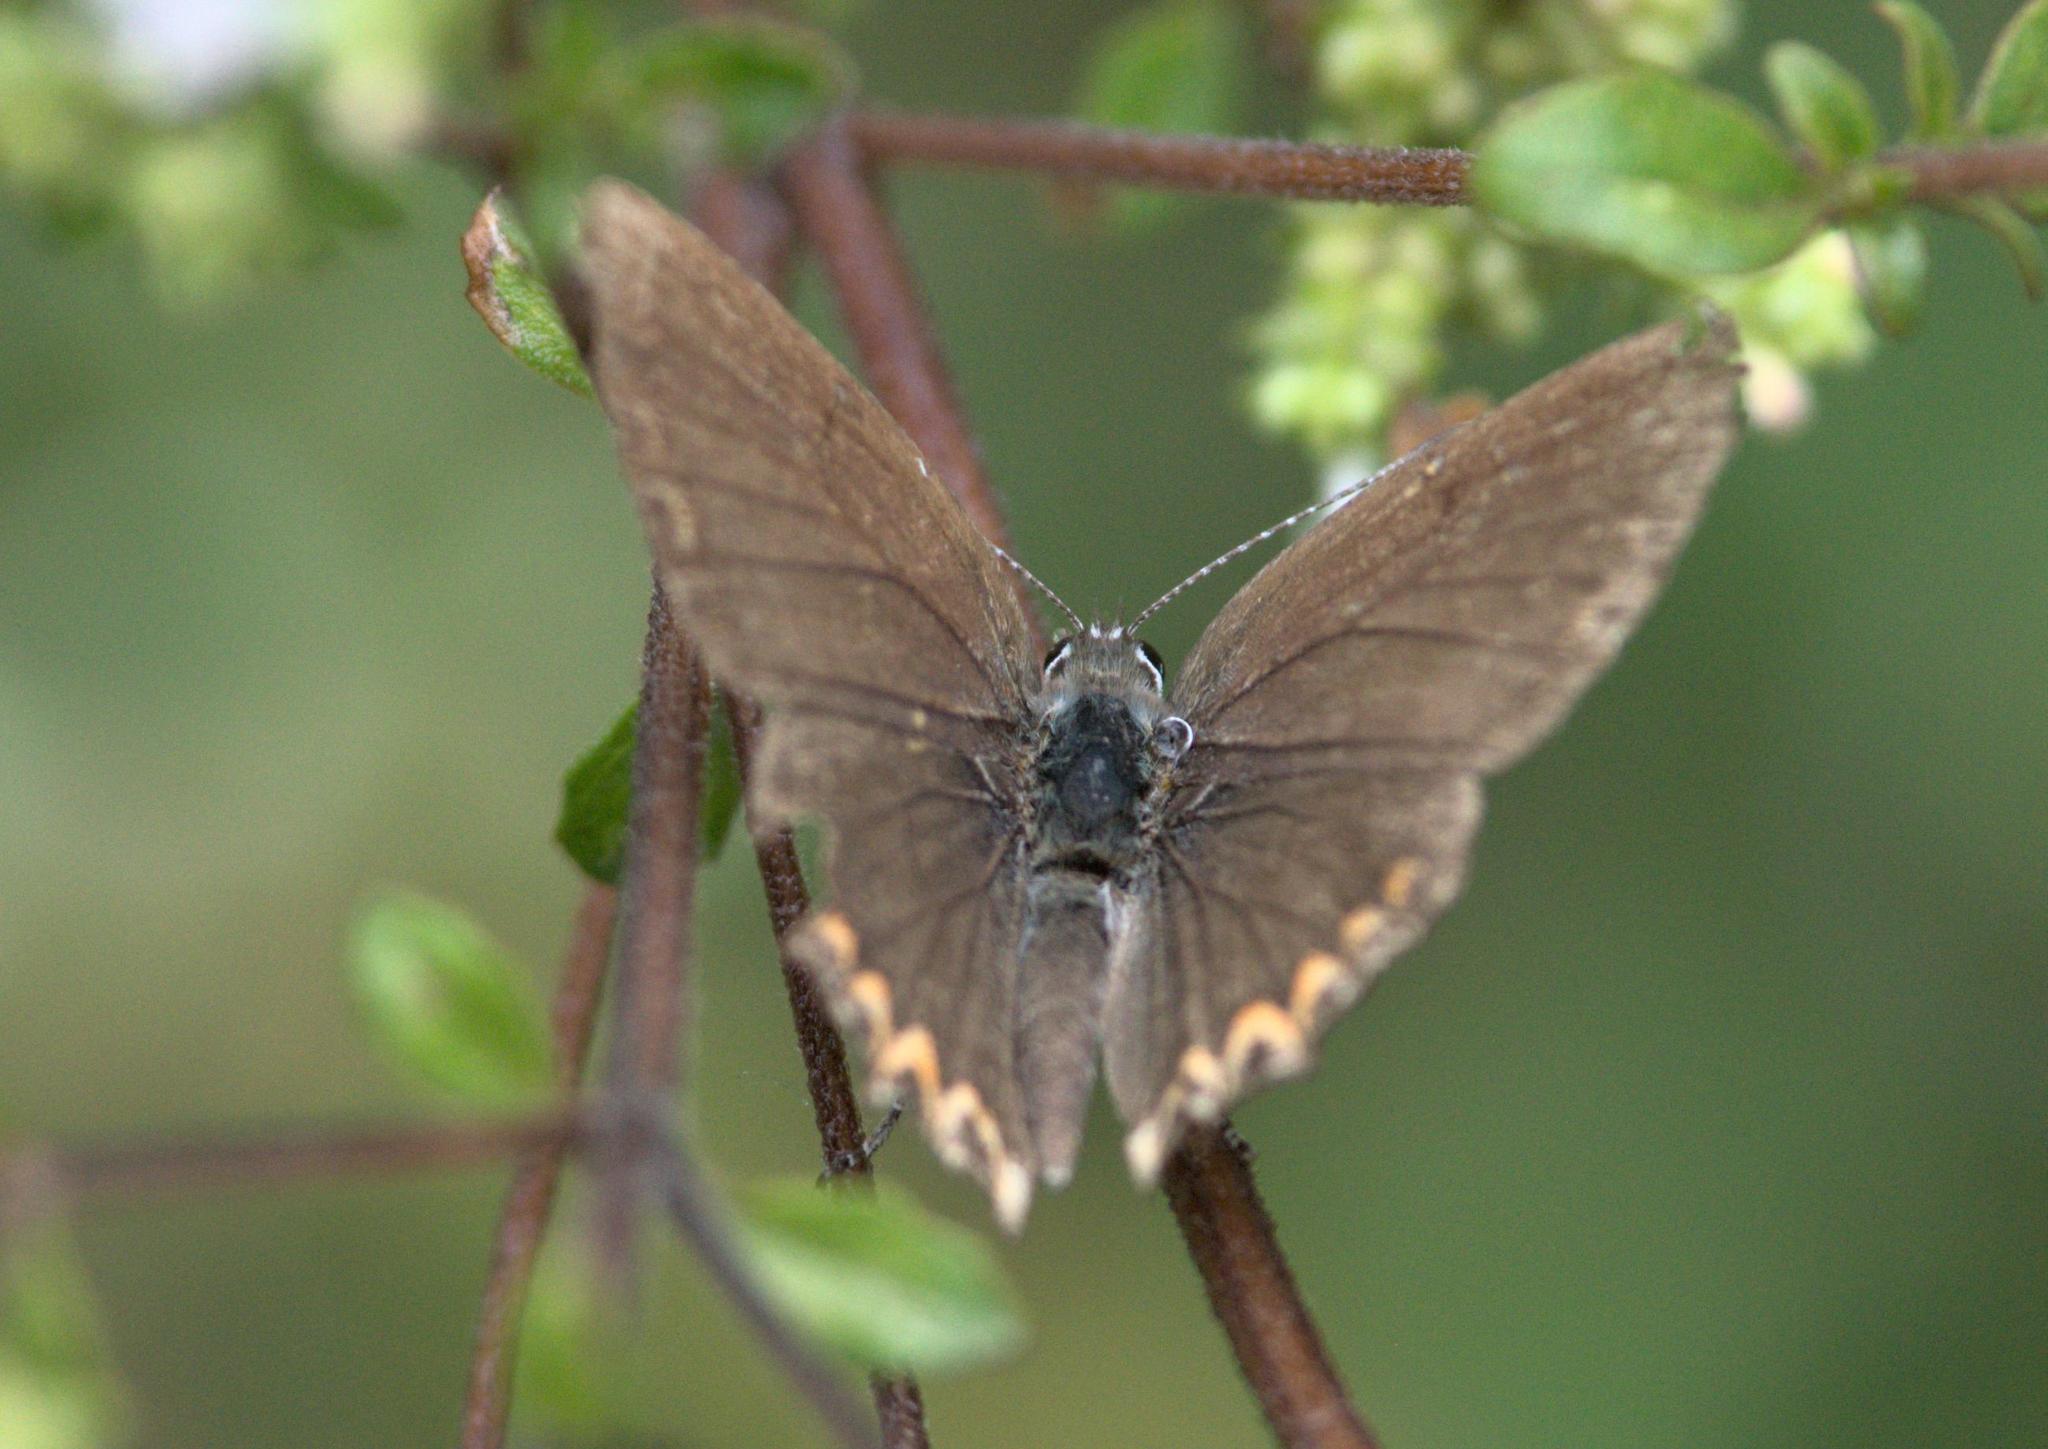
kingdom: Animalia
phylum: Arthropoda
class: Insecta
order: Lepidoptera
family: Lycaenidae
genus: Heliophorus
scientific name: Heliophorus sena
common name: Sorrel sapphire
